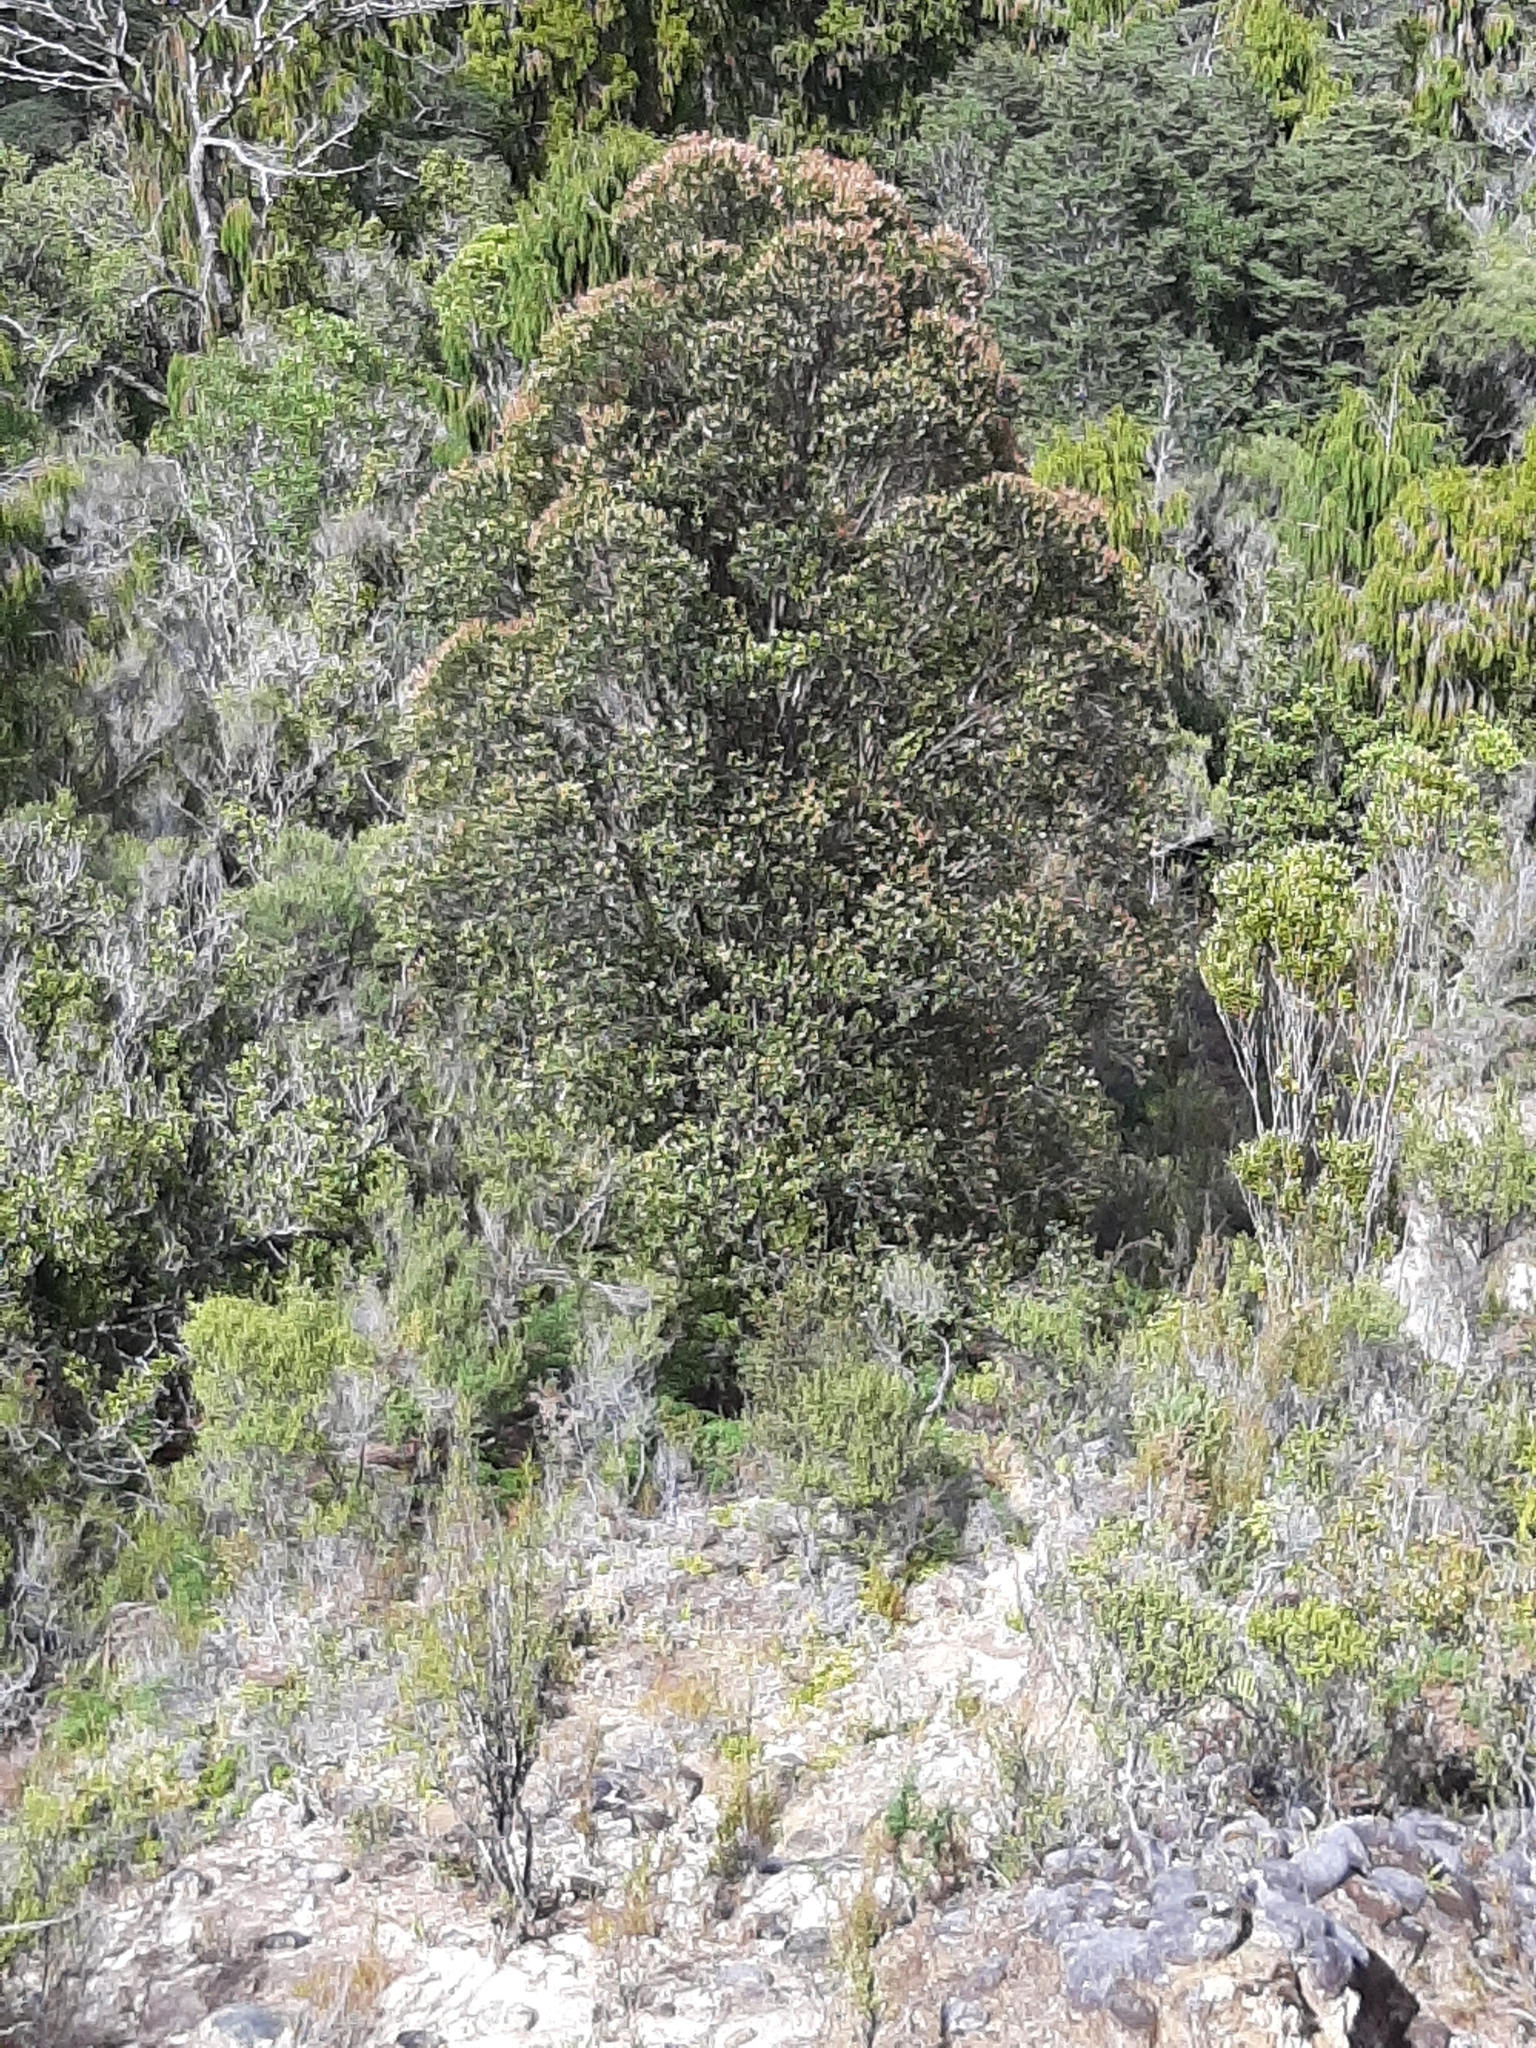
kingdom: Plantae
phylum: Tracheophyta
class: Magnoliopsida
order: Myrtales
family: Myrtaceae
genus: Metrosideros
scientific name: Metrosideros umbellata
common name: Southern rata
